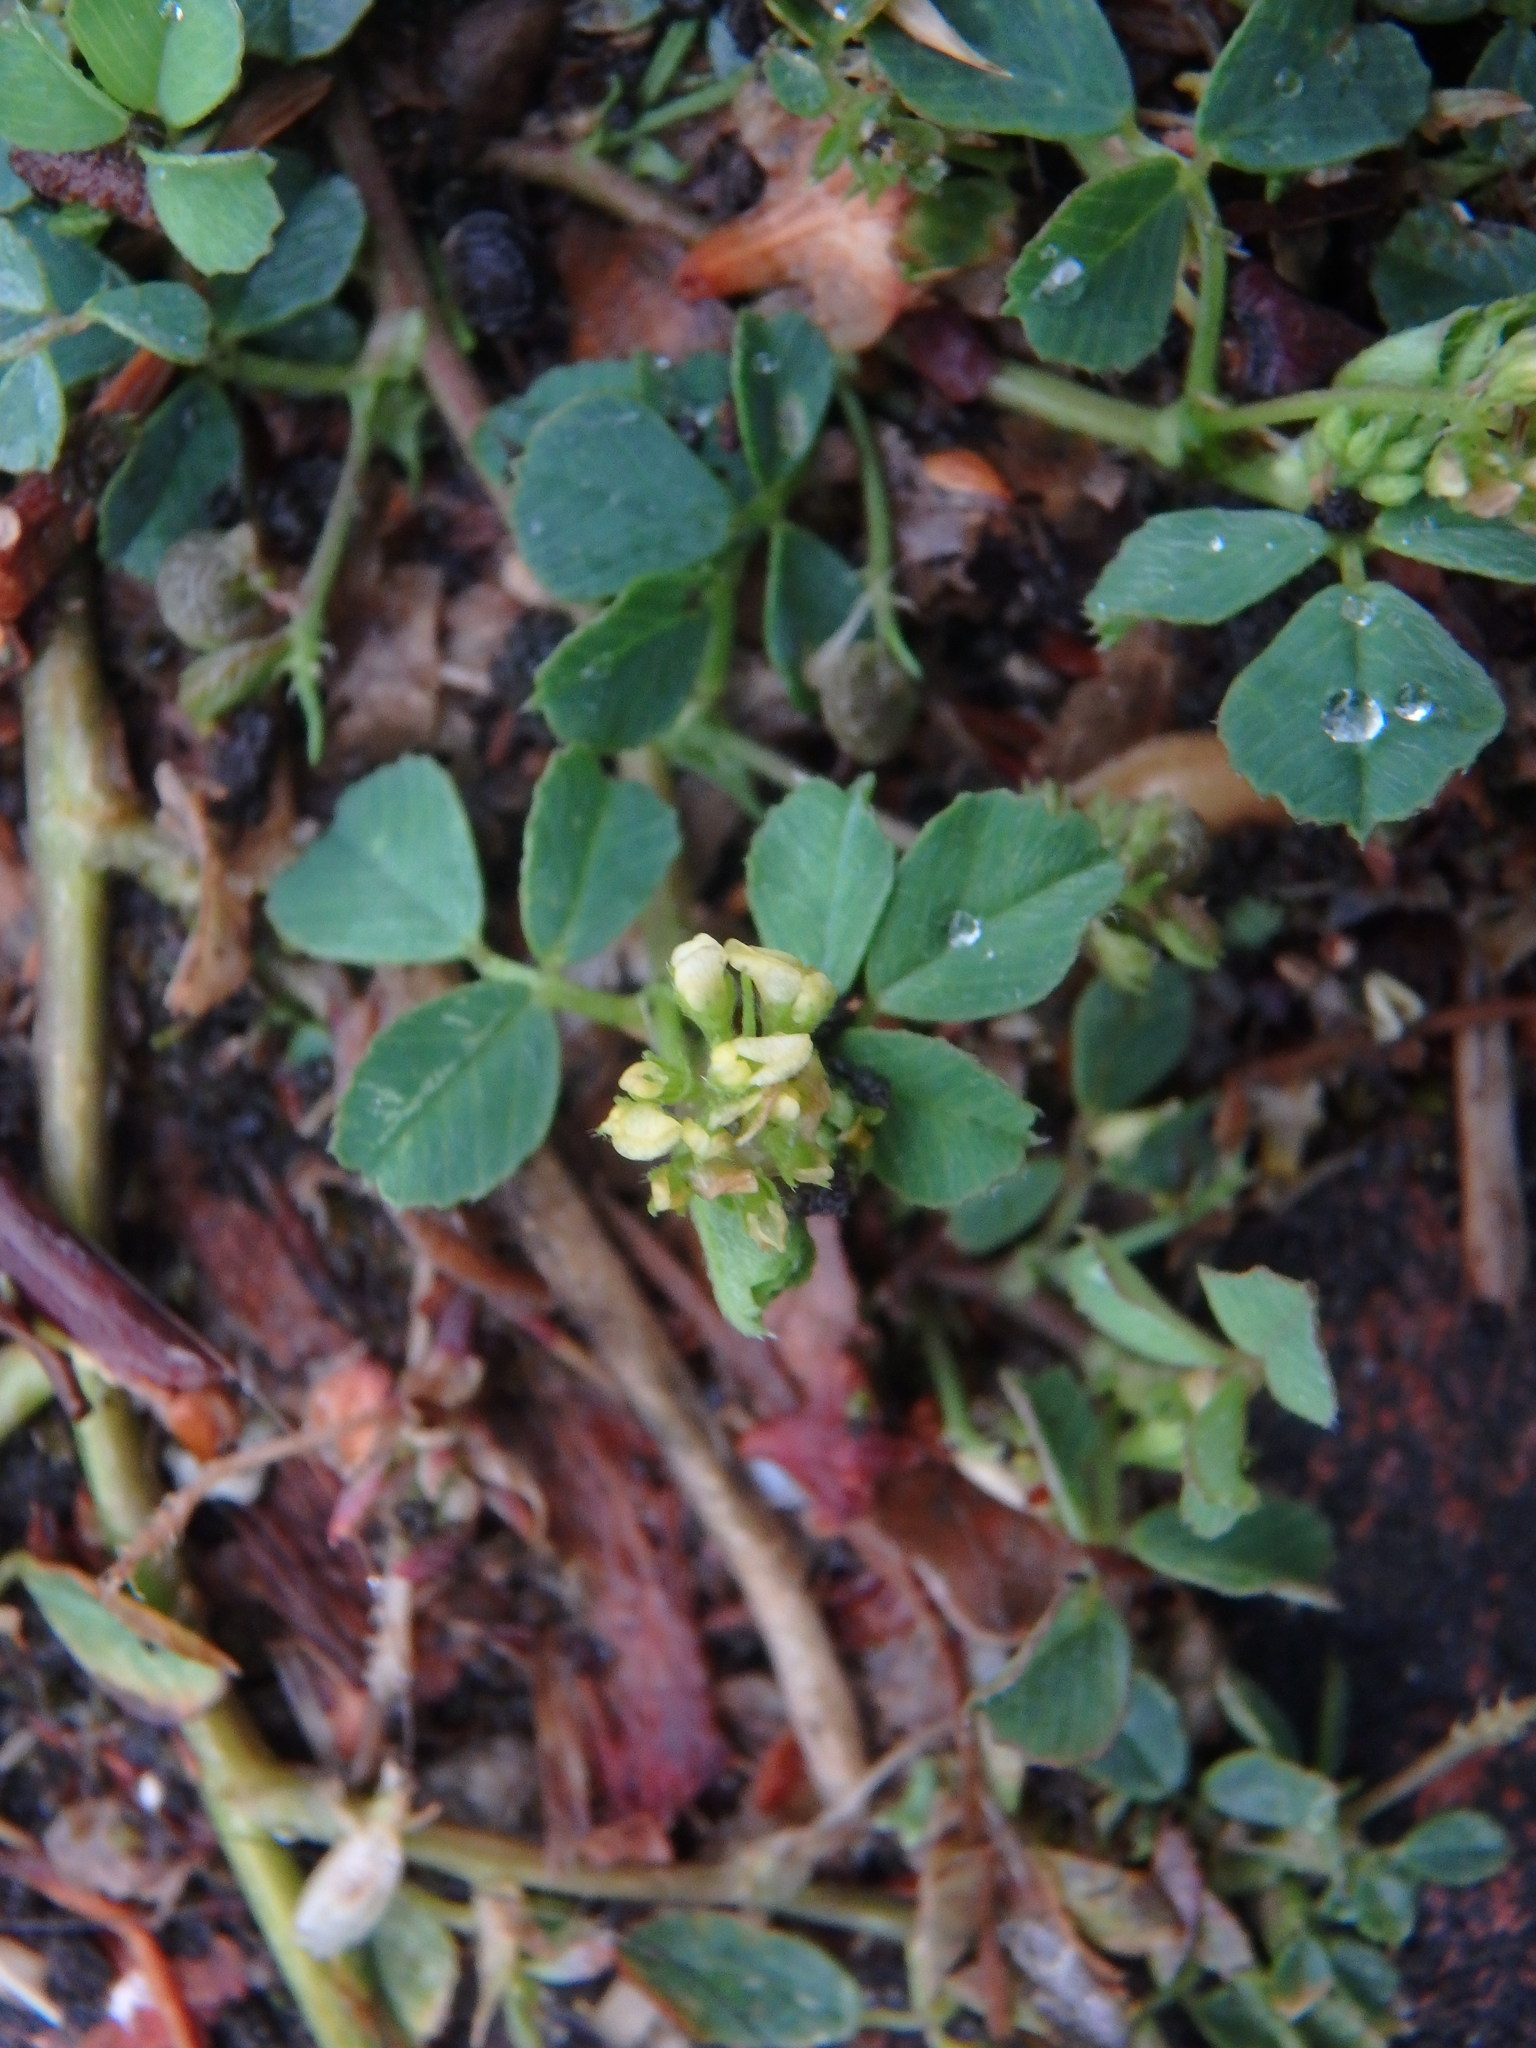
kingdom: Plantae
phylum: Tracheophyta
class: Magnoliopsida
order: Fabales
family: Fabaceae
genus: Medicago
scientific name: Medicago lupulina
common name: Black medick
